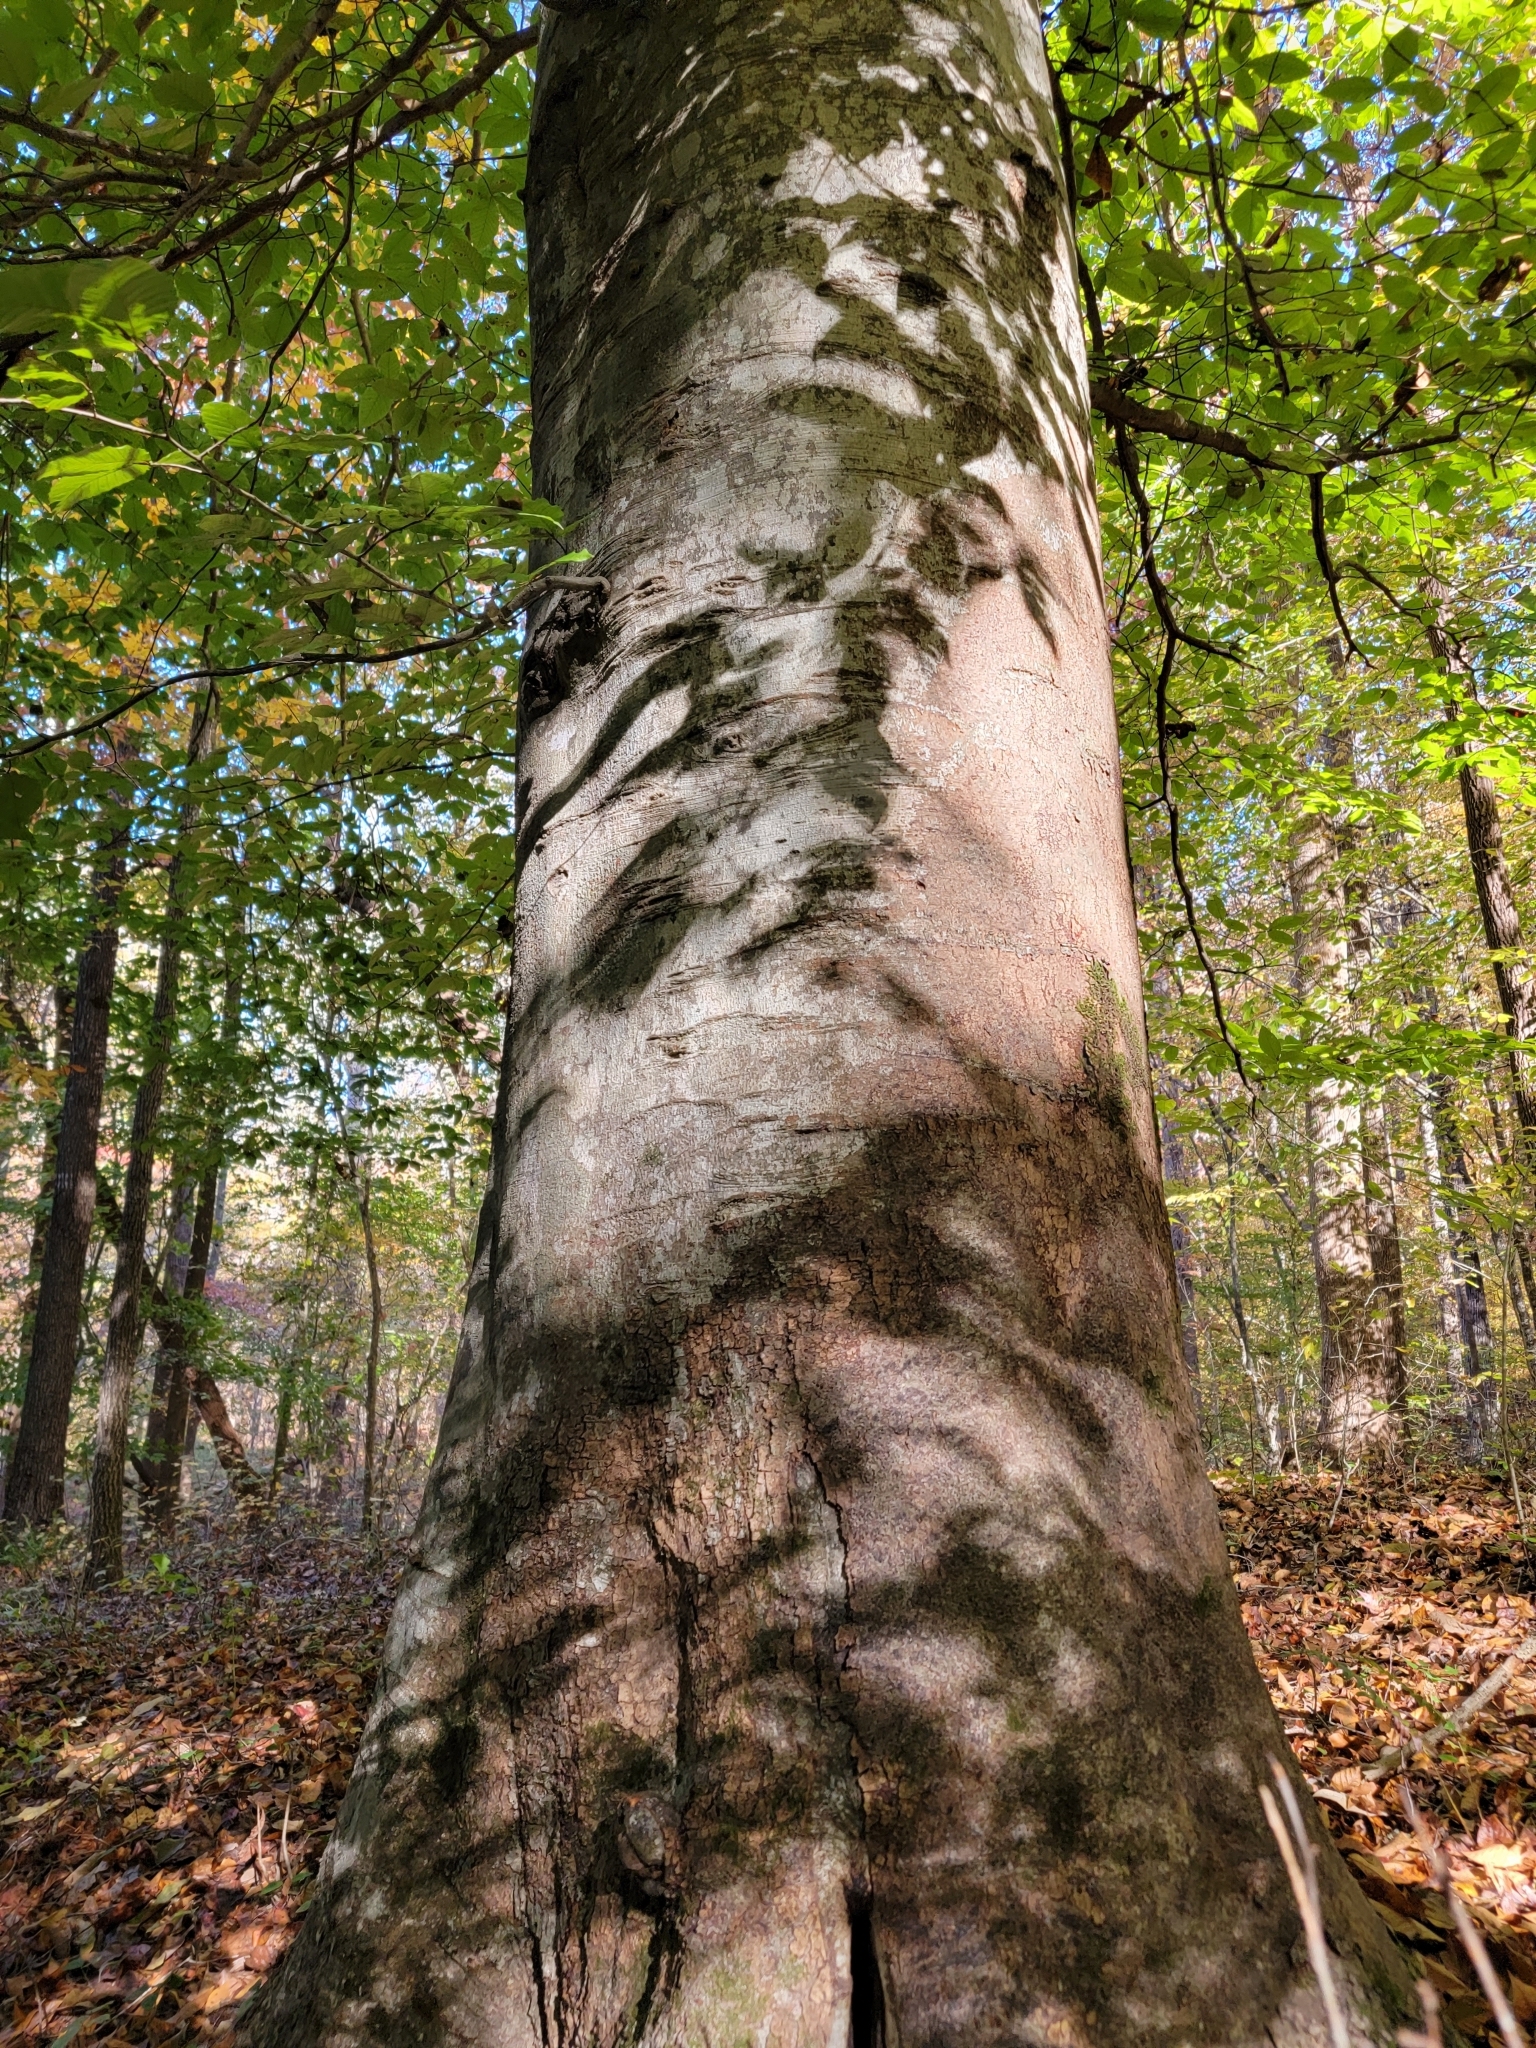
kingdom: Plantae
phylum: Tracheophyta
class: Magnoliopsida
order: Fagales
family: Fagaceae
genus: Fagus
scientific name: Fagus grandifolia
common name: American beech
